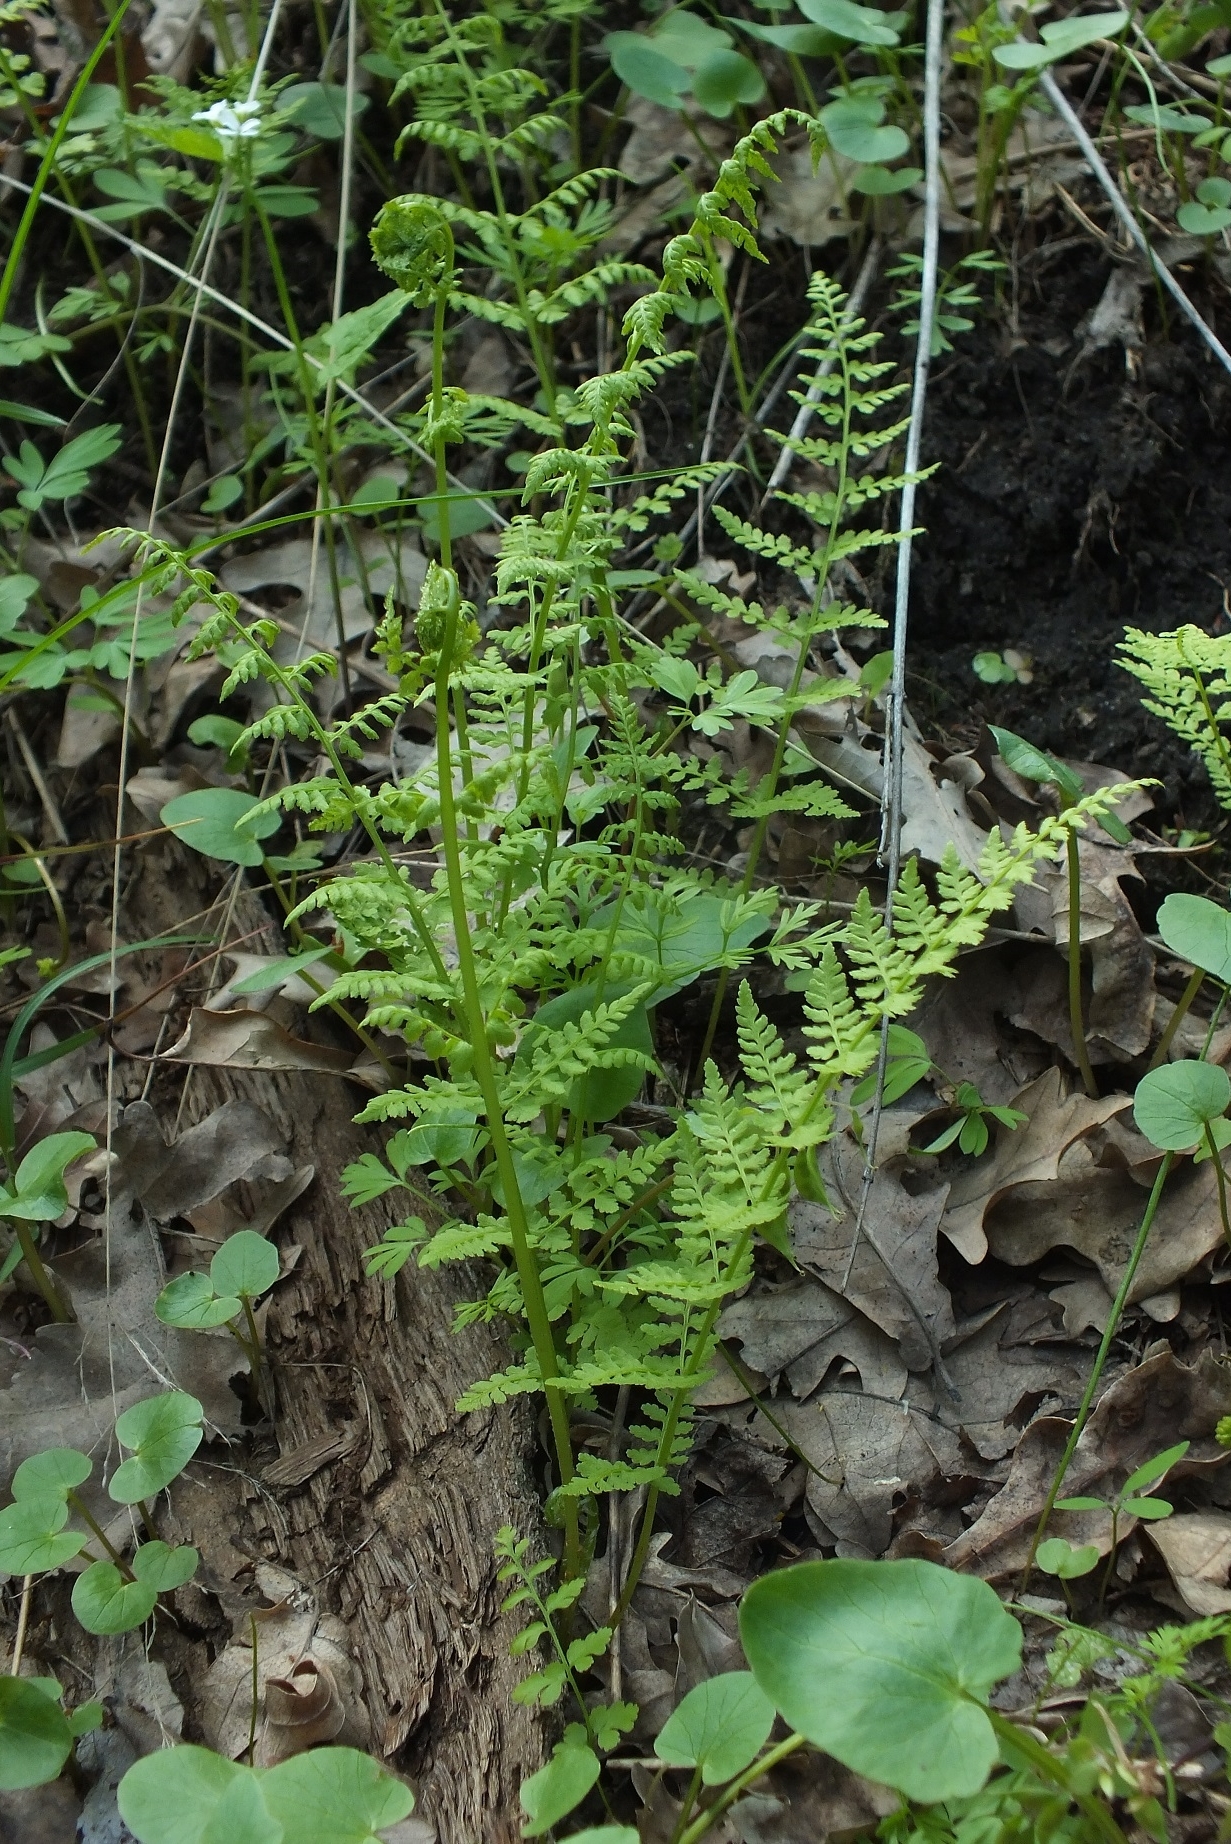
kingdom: Plantae
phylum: Tracheophyta
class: Polypodiopsida
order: Polypodiales
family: Cystopteridaceae
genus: Cystopteris
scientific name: Cystopteris fragilis
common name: Brittle bladder fern
